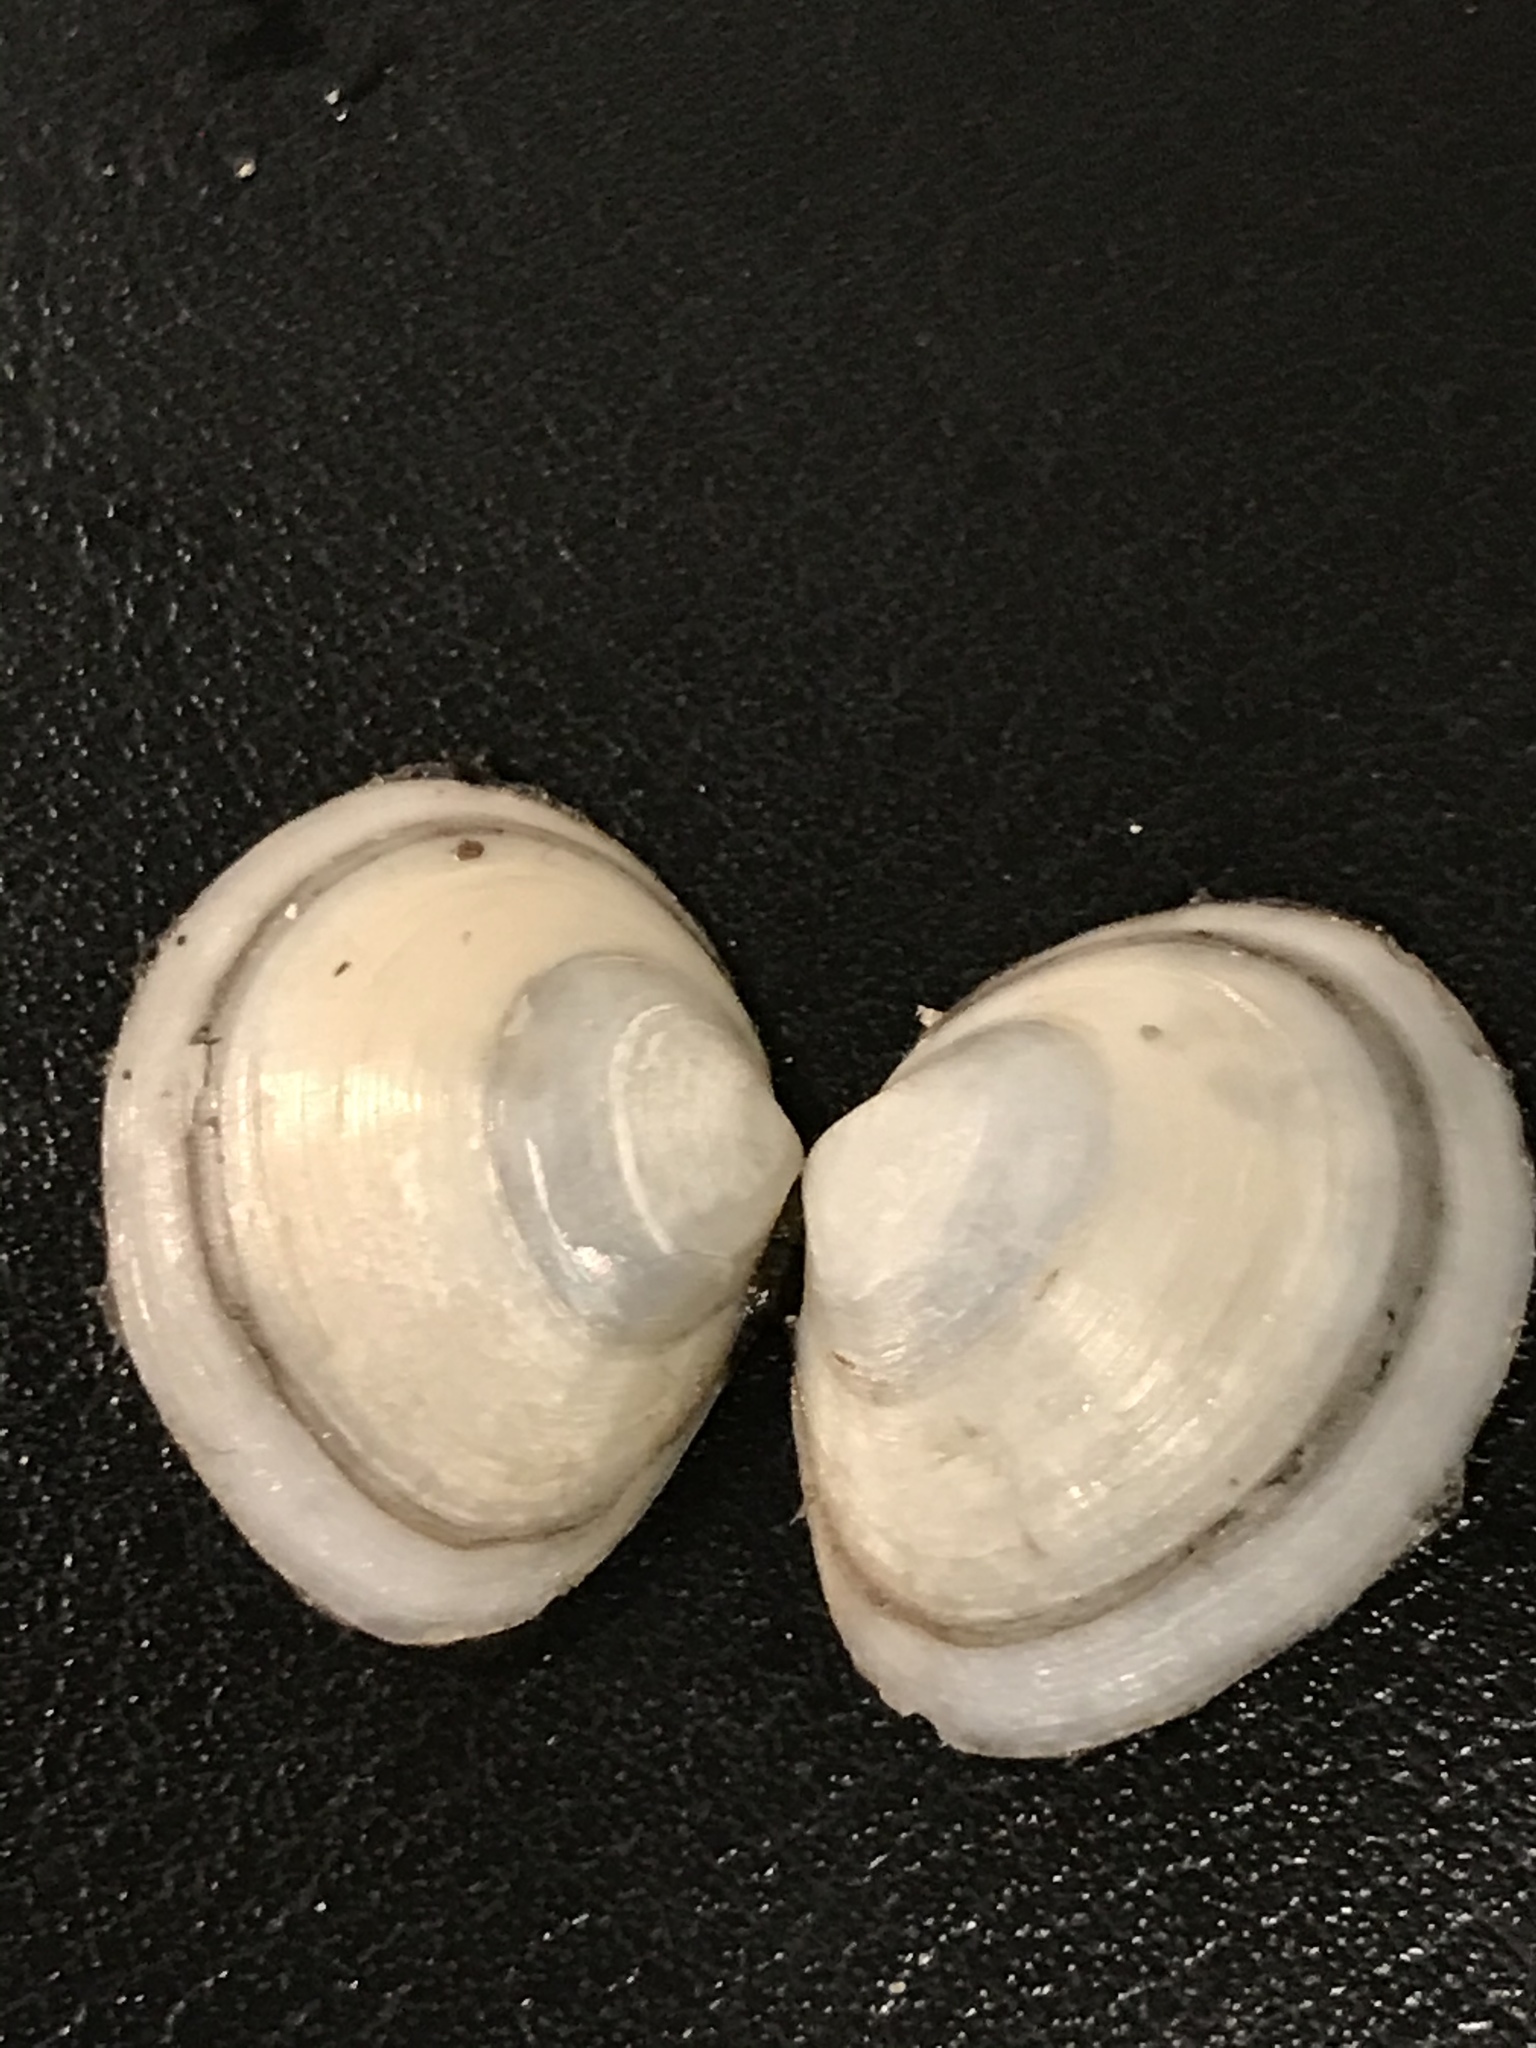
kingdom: Animalia
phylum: Mollusca
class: Bivalvia
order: Cardiida
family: Tellinidae
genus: Macoma
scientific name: Macoma petalum
